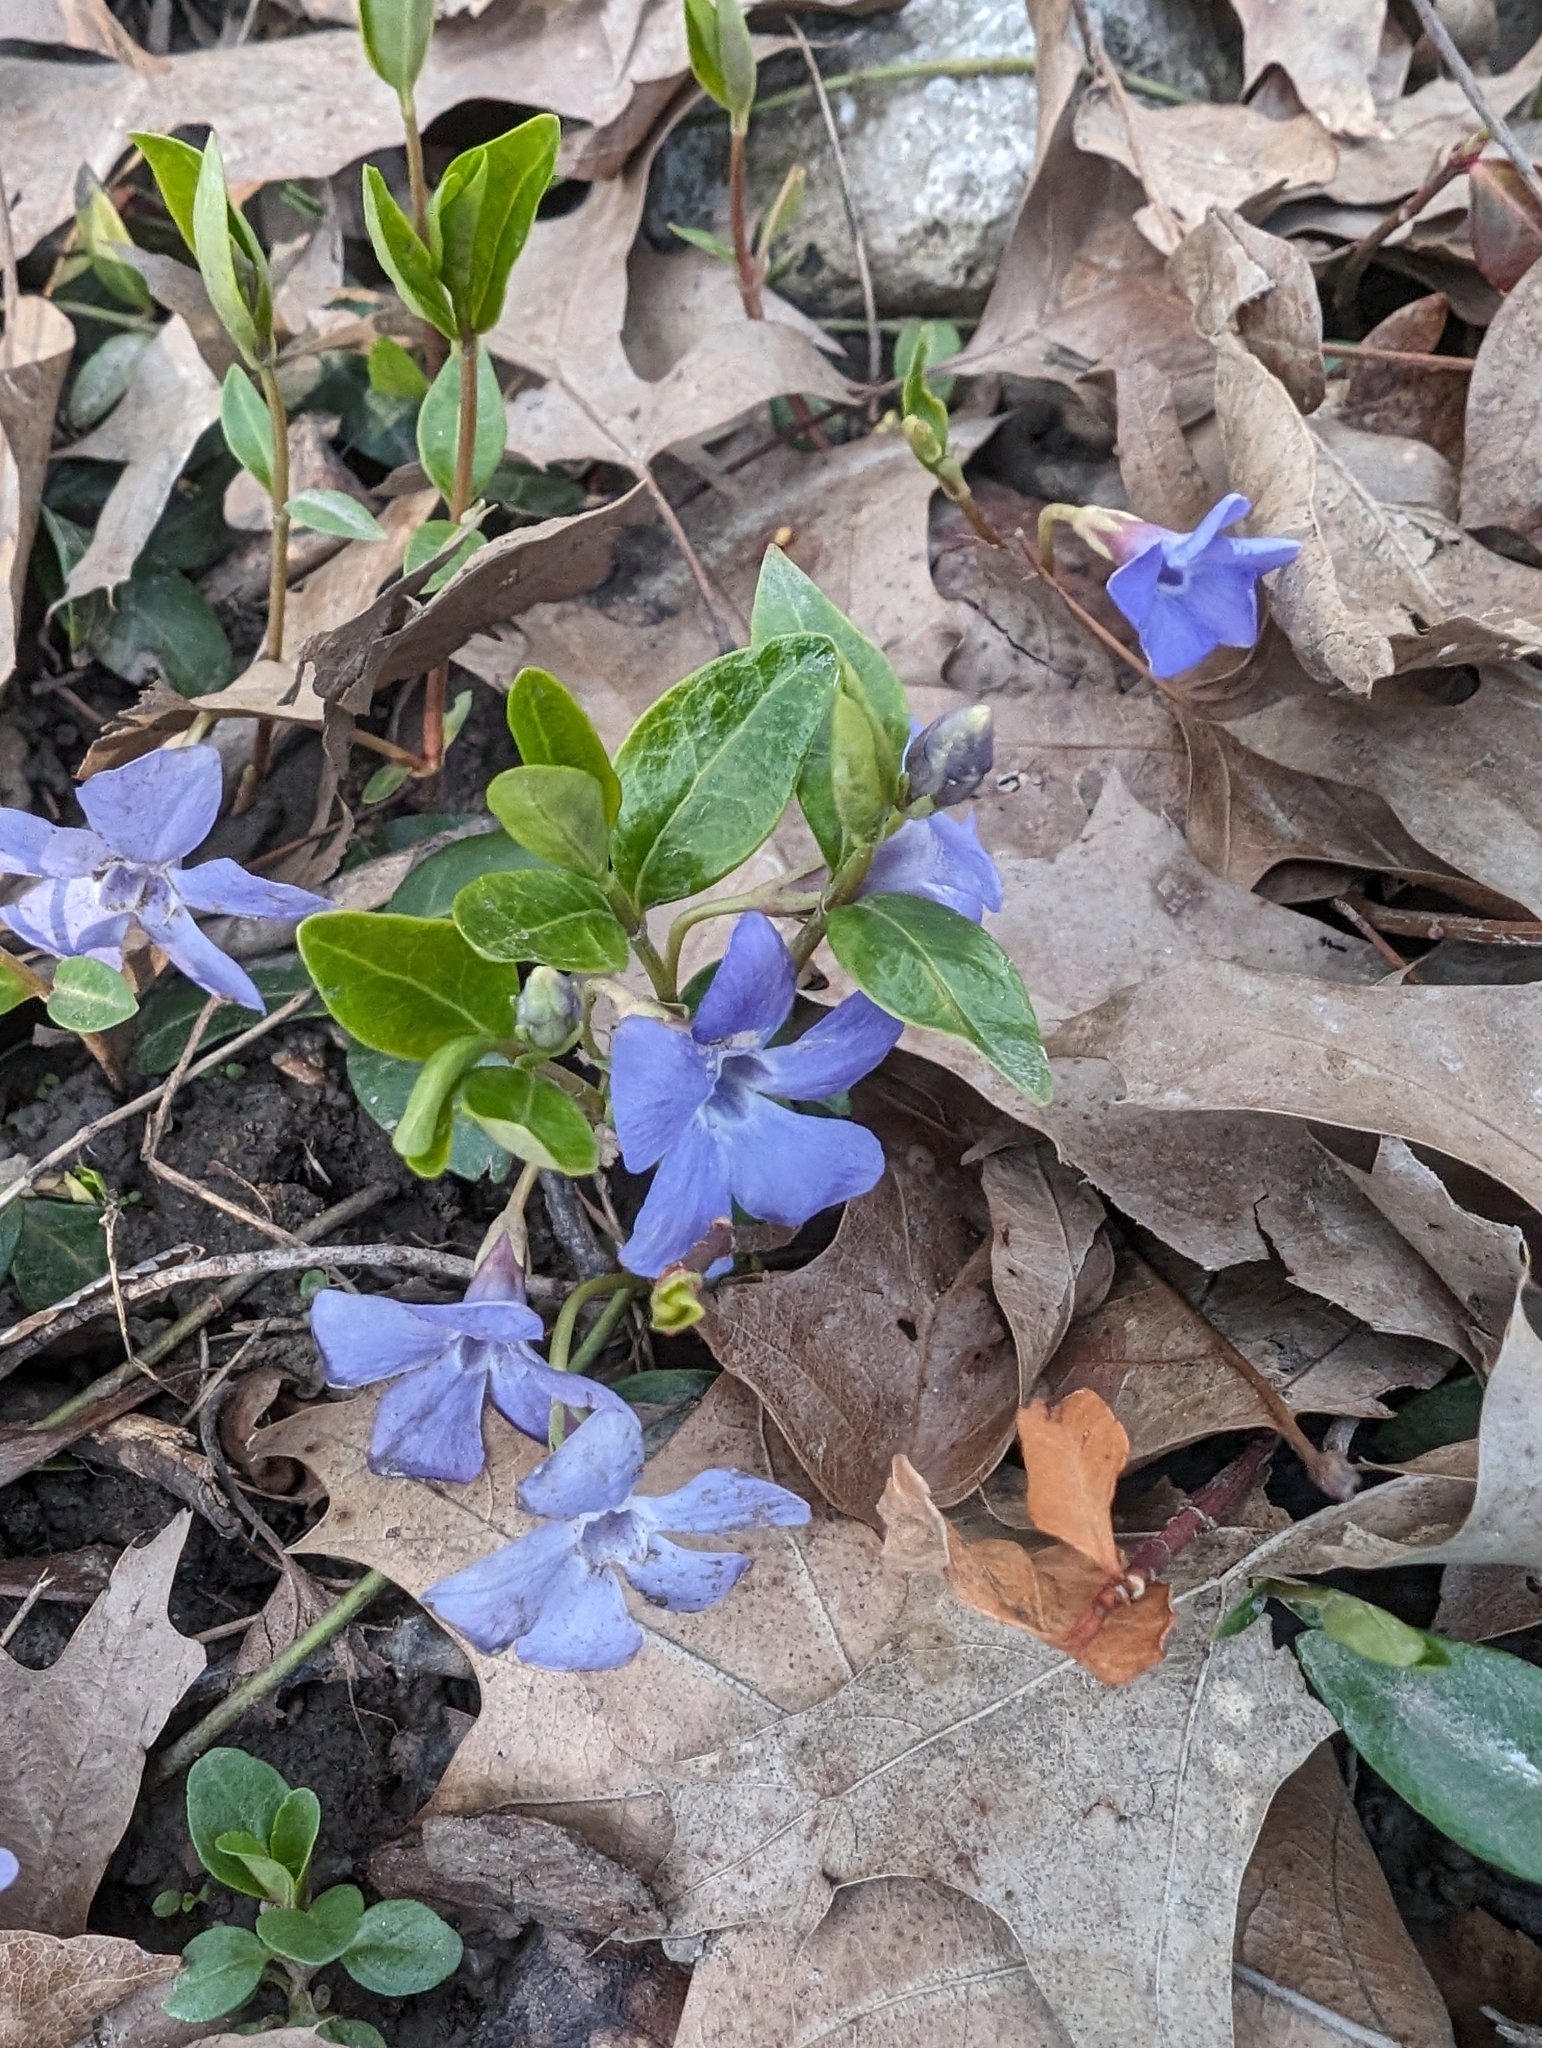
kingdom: Plantae
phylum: Tracheophyta
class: Magnoliopsida
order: Gentianales
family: Apocynaceae
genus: Vinca
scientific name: Vinca minor
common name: Lesser periwinkle
